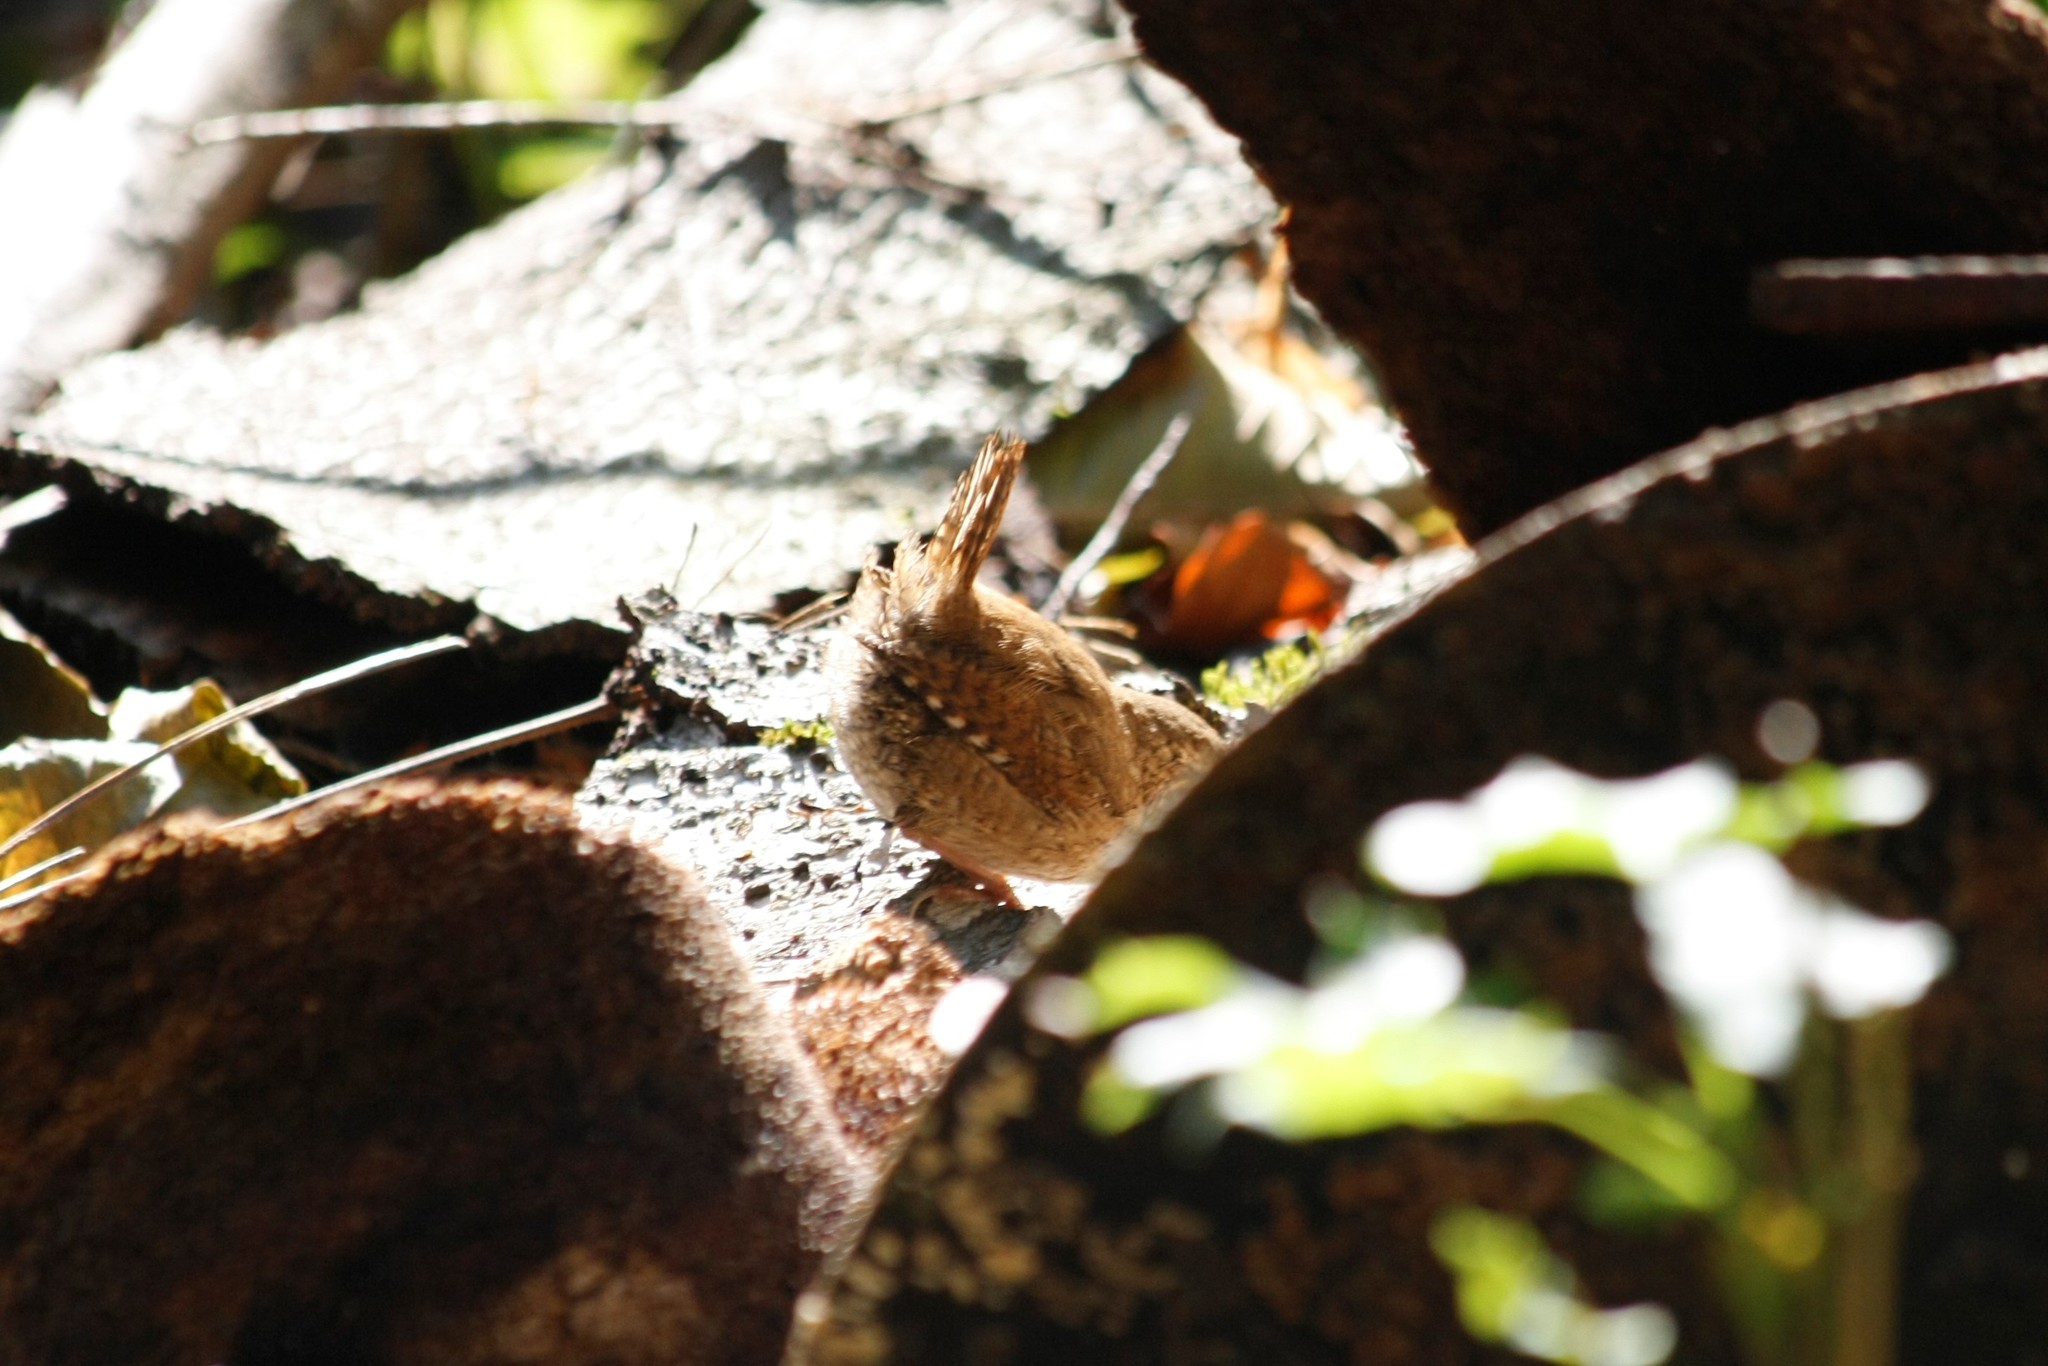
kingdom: Animalia
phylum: Chordata
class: Aves
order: Passeriformes
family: Troglodytidae
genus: Troglodytes
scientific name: Troglodytes troglodytes
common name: Eurasian wren
